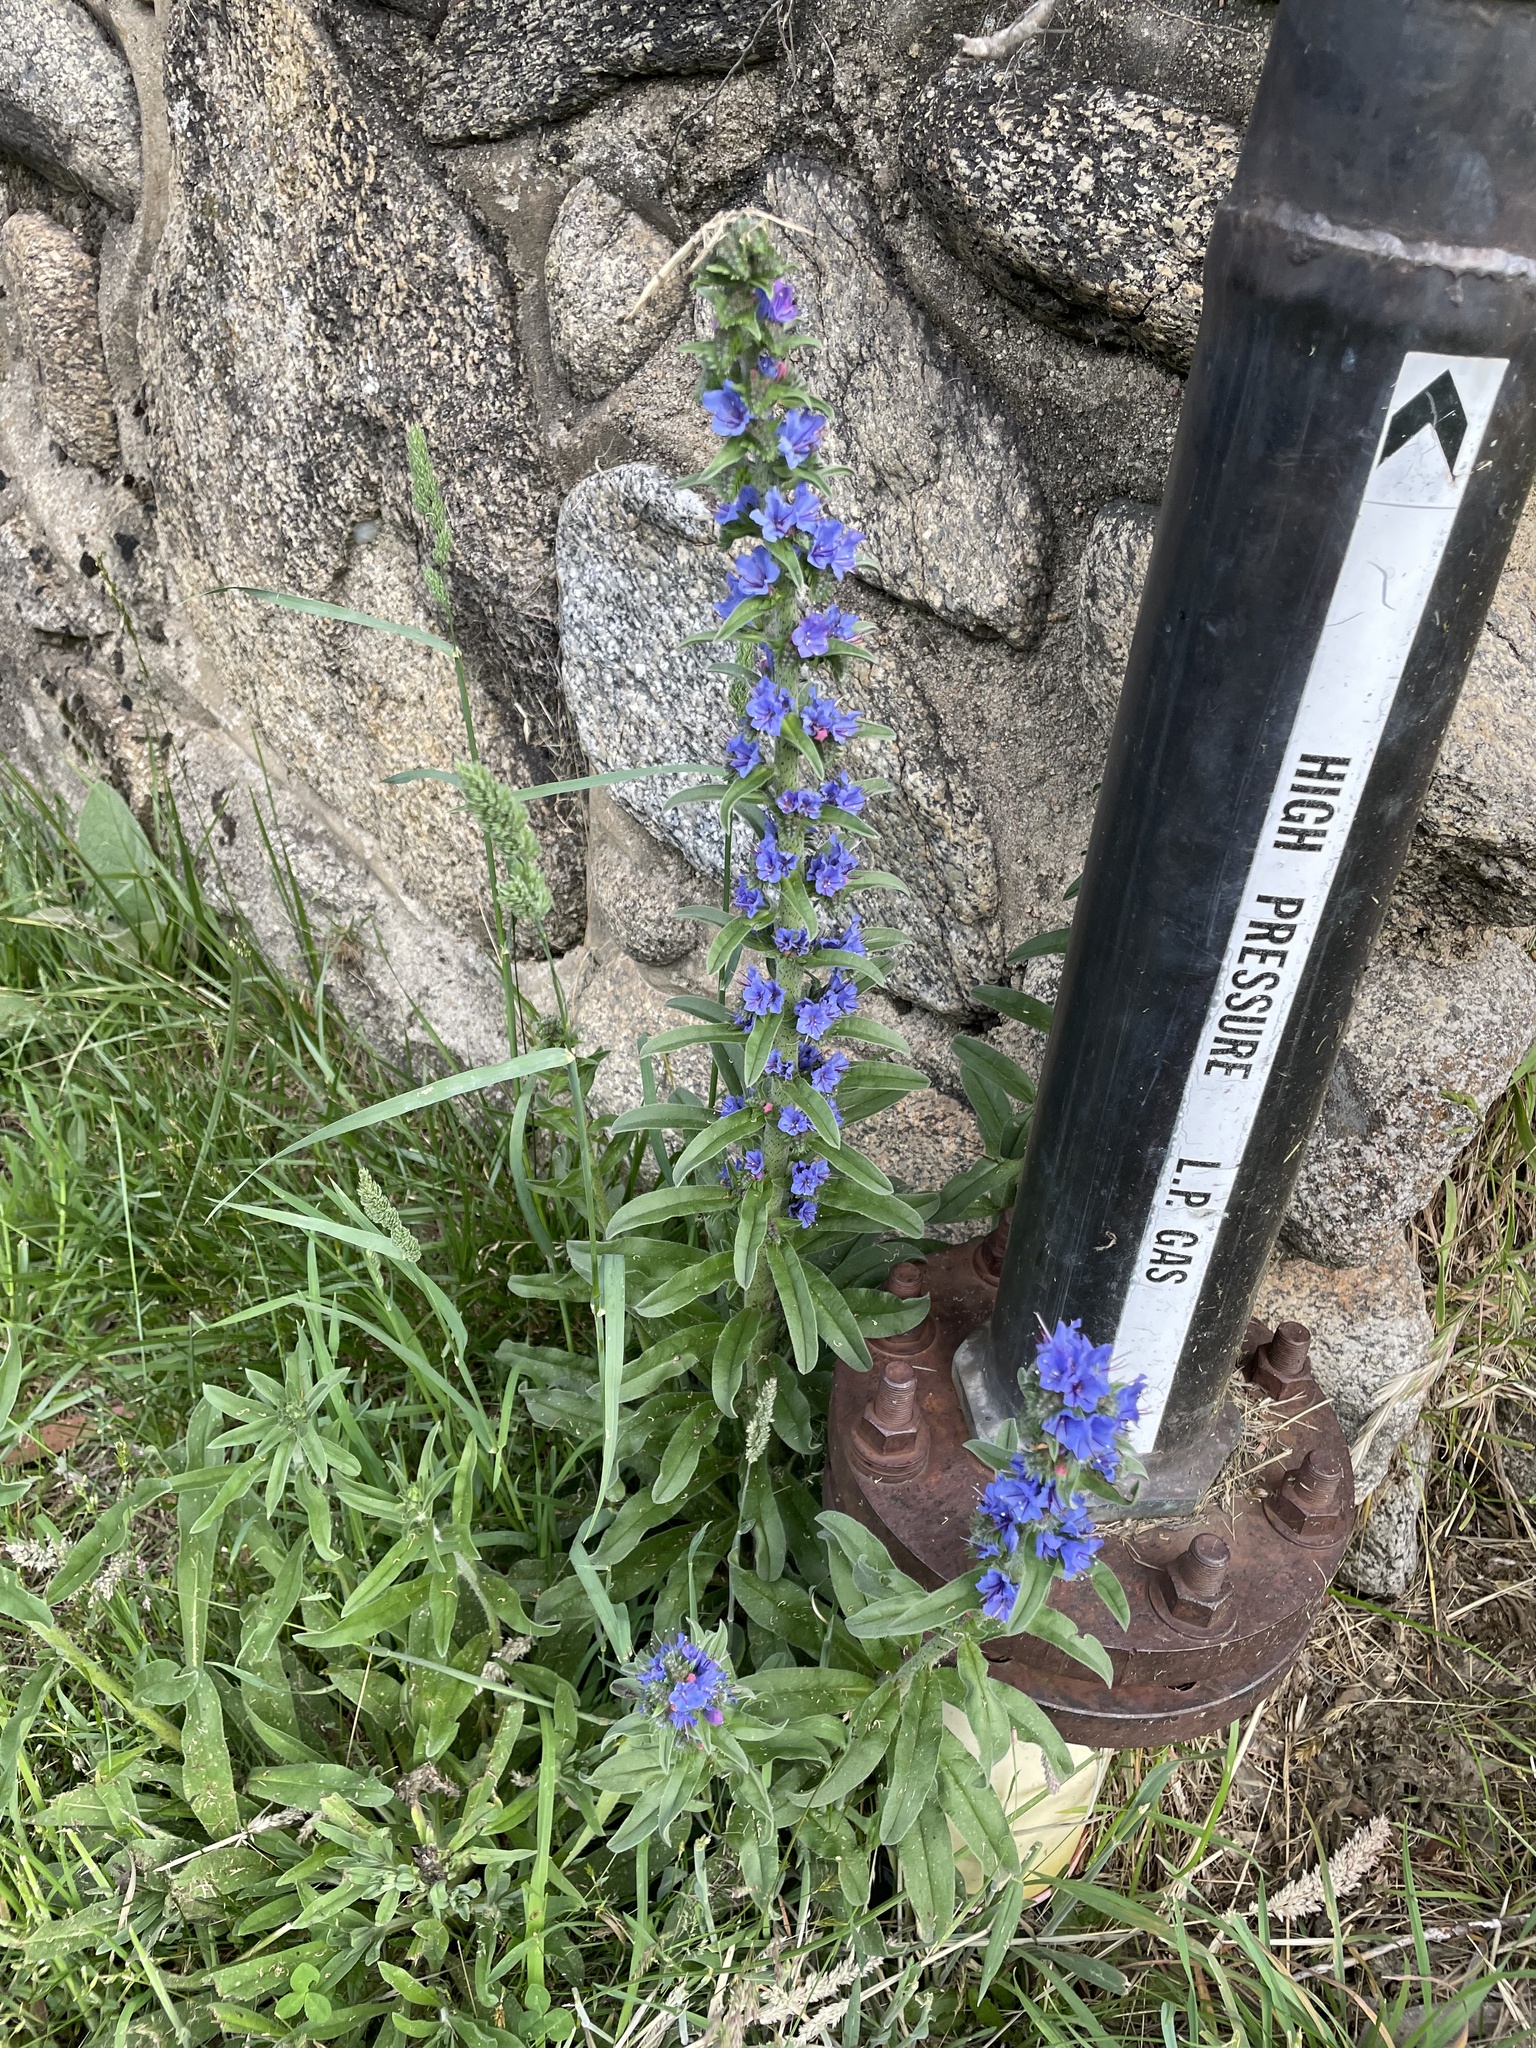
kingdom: Plantae
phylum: Tracheophyta
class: Magnoliopsida
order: Boraginales
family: Boraginaceae
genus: Echium
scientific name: Echium vulgare
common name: Common viper's bugloss
